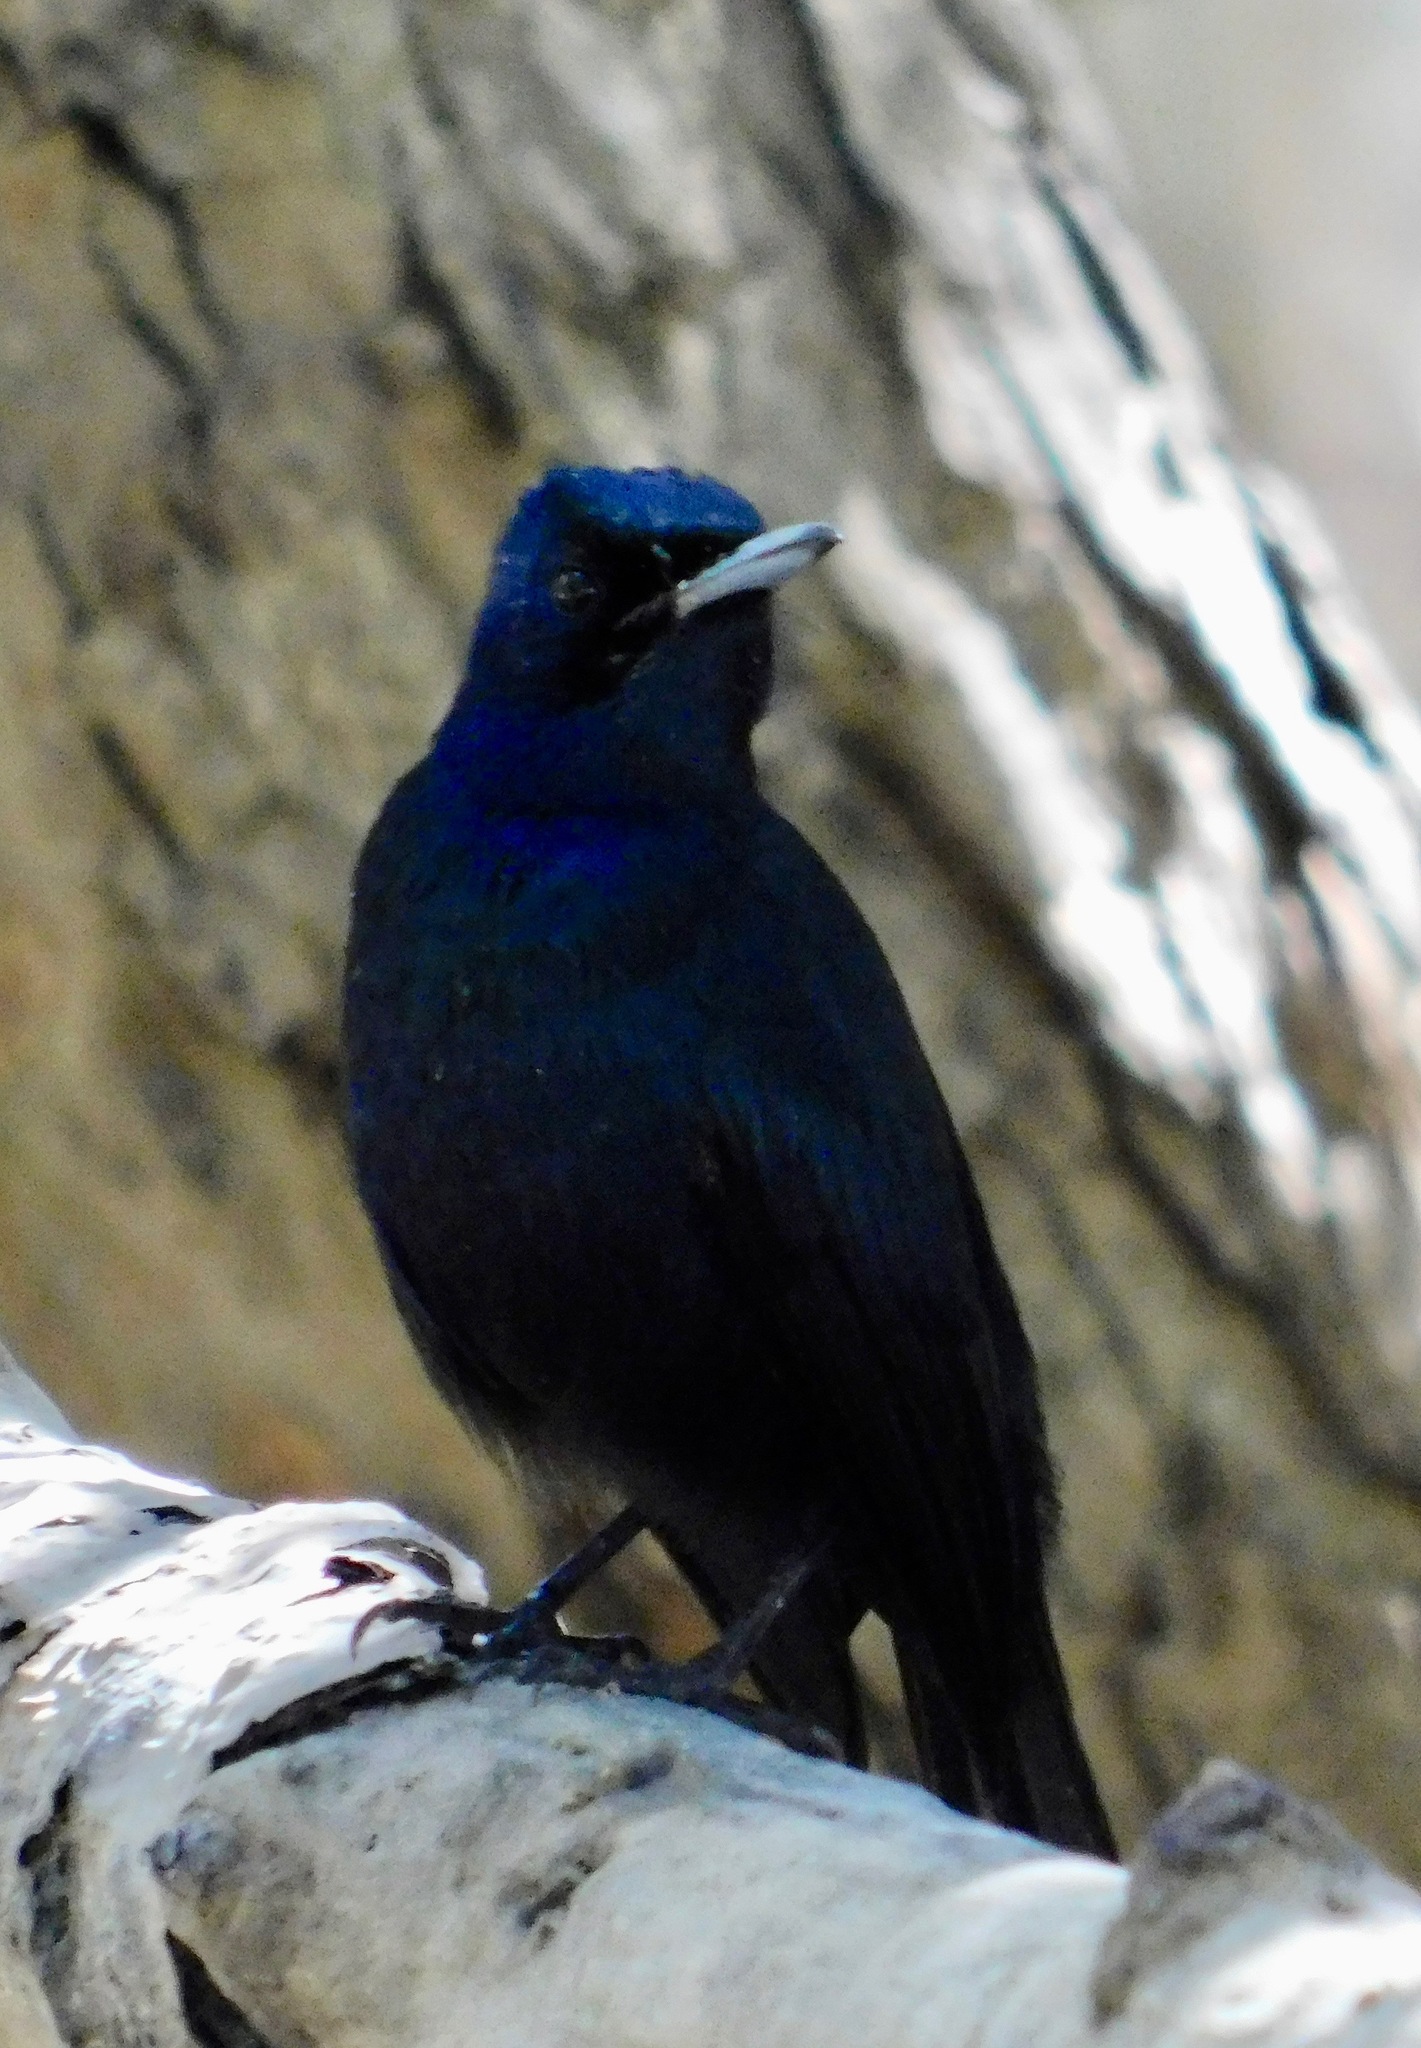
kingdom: Animalia
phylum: Chordata
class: Aves
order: Passeriformes
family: Monarchidae
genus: Myiagra
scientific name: Myiagra alecto
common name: Shining flycatcher
